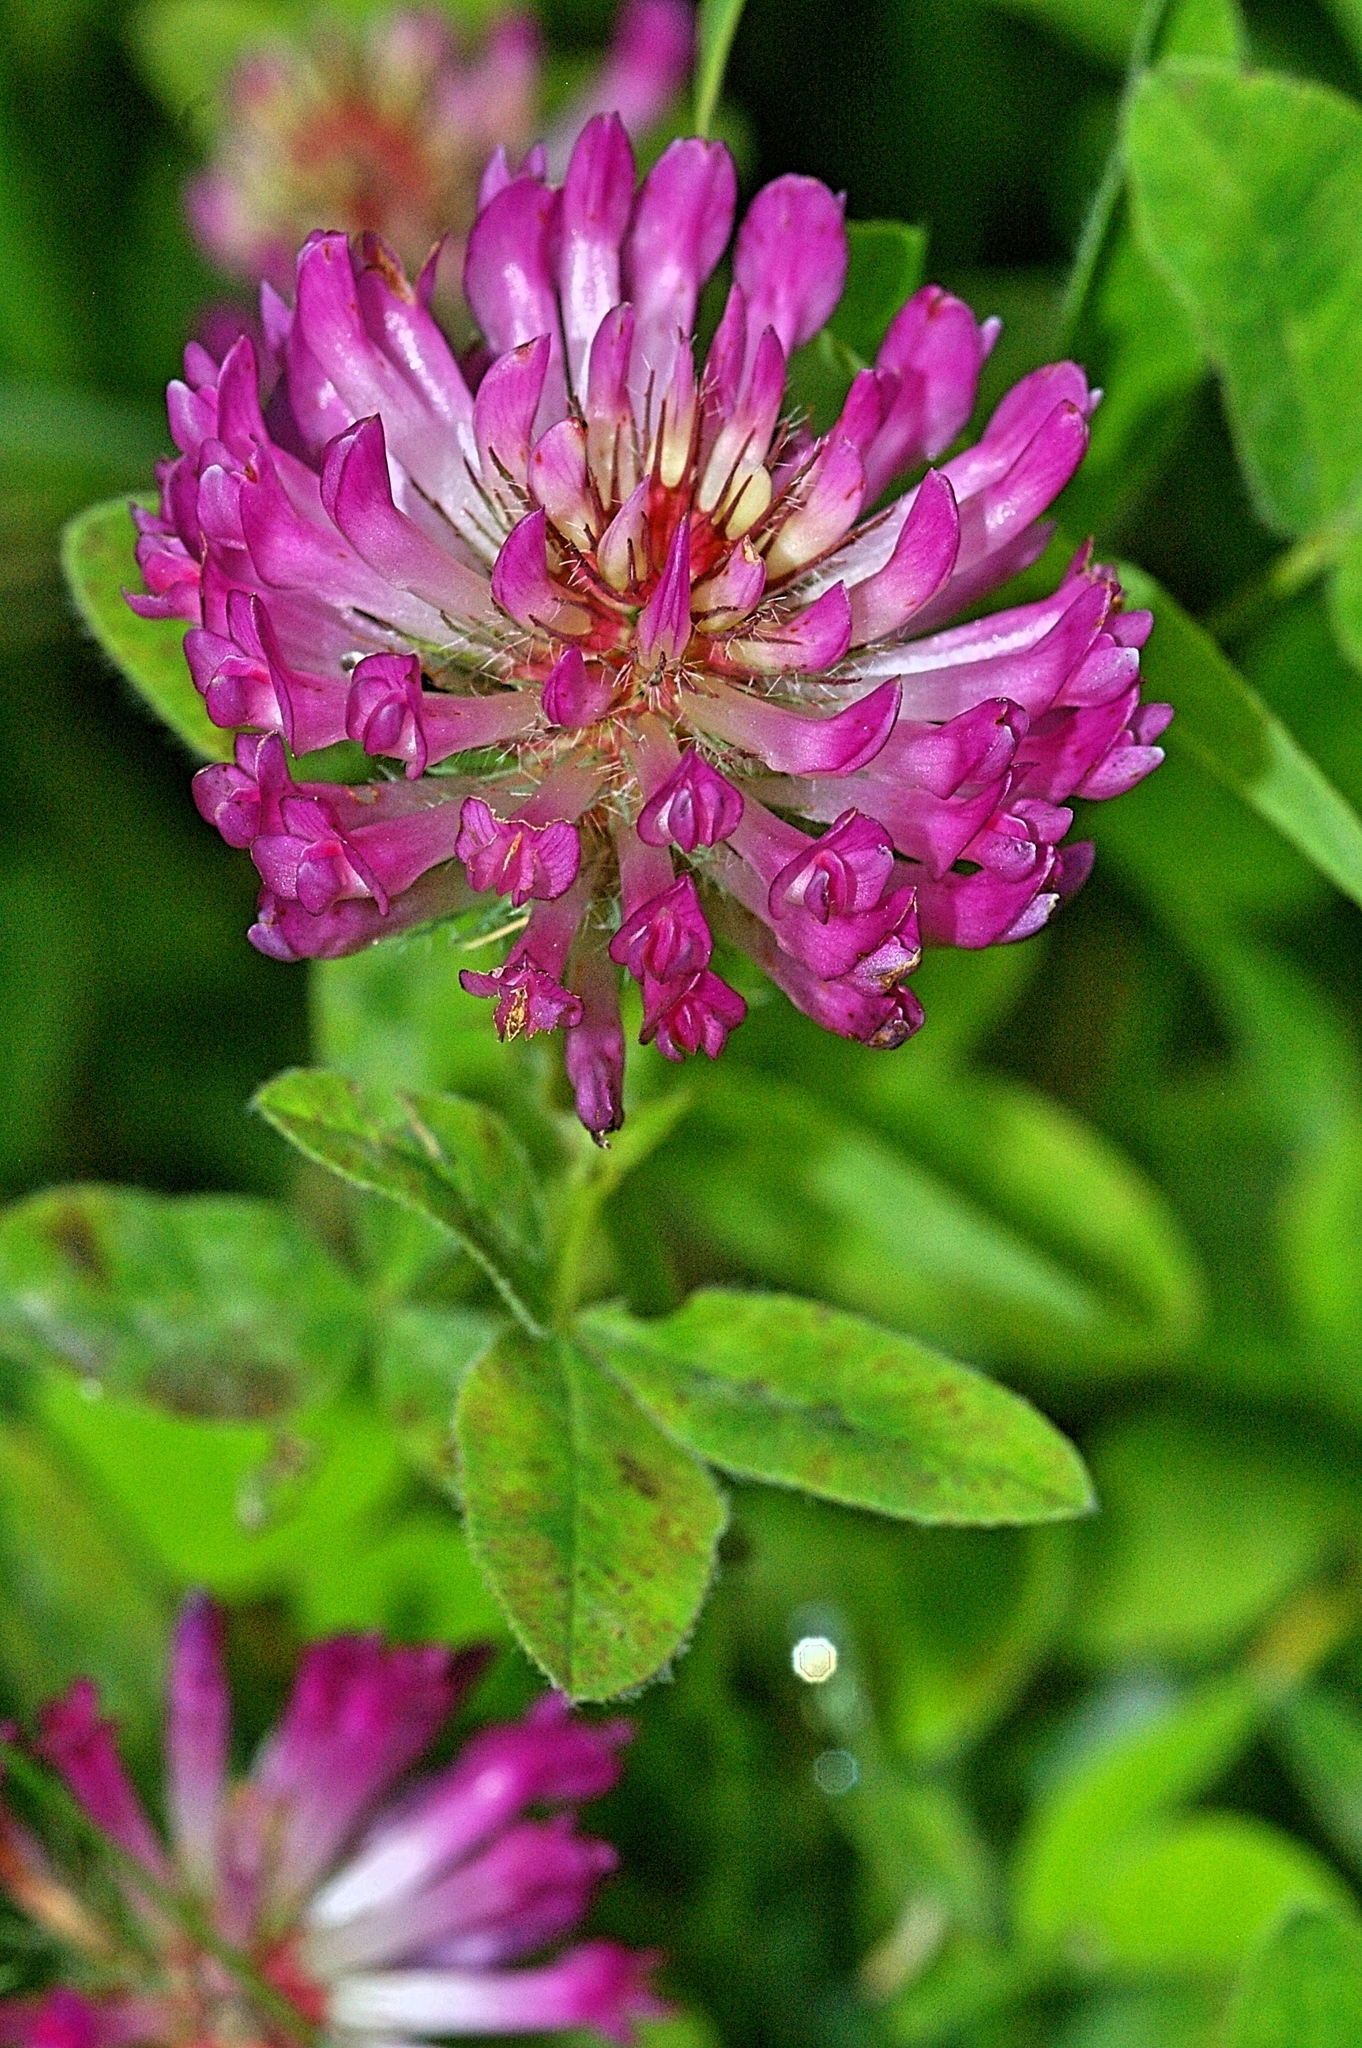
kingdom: Plantae
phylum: Tracheophyta
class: Magnoliopsida
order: Fabales
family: Fabaceae
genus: Trifolium
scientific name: Trifolium medium
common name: Zigzag clover
